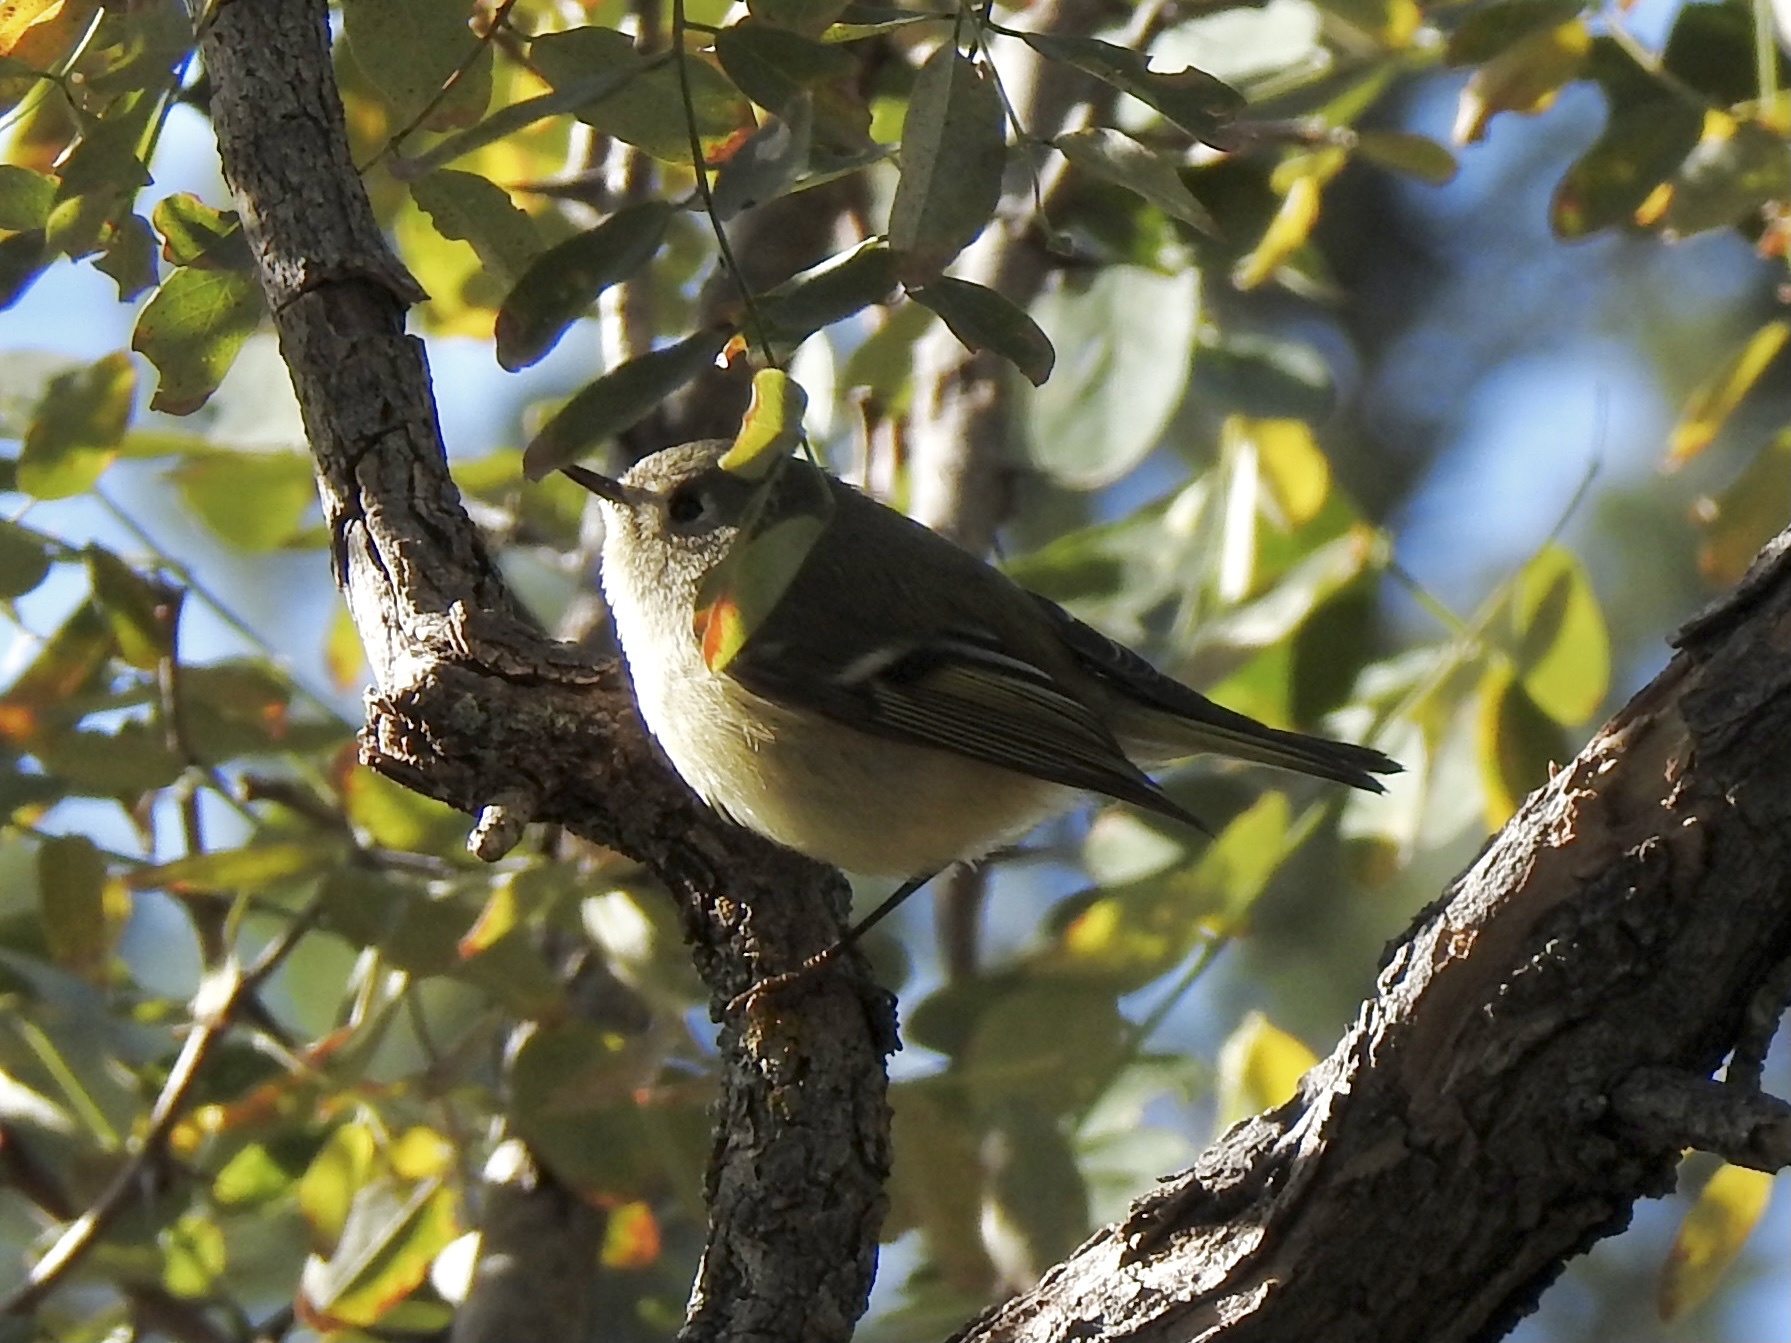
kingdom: Animalia
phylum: Chordata
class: Aves
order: Passeriformes
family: Regulidae
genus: Regulus
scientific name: Regulus calendula
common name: Ruby-crowned kinglet
